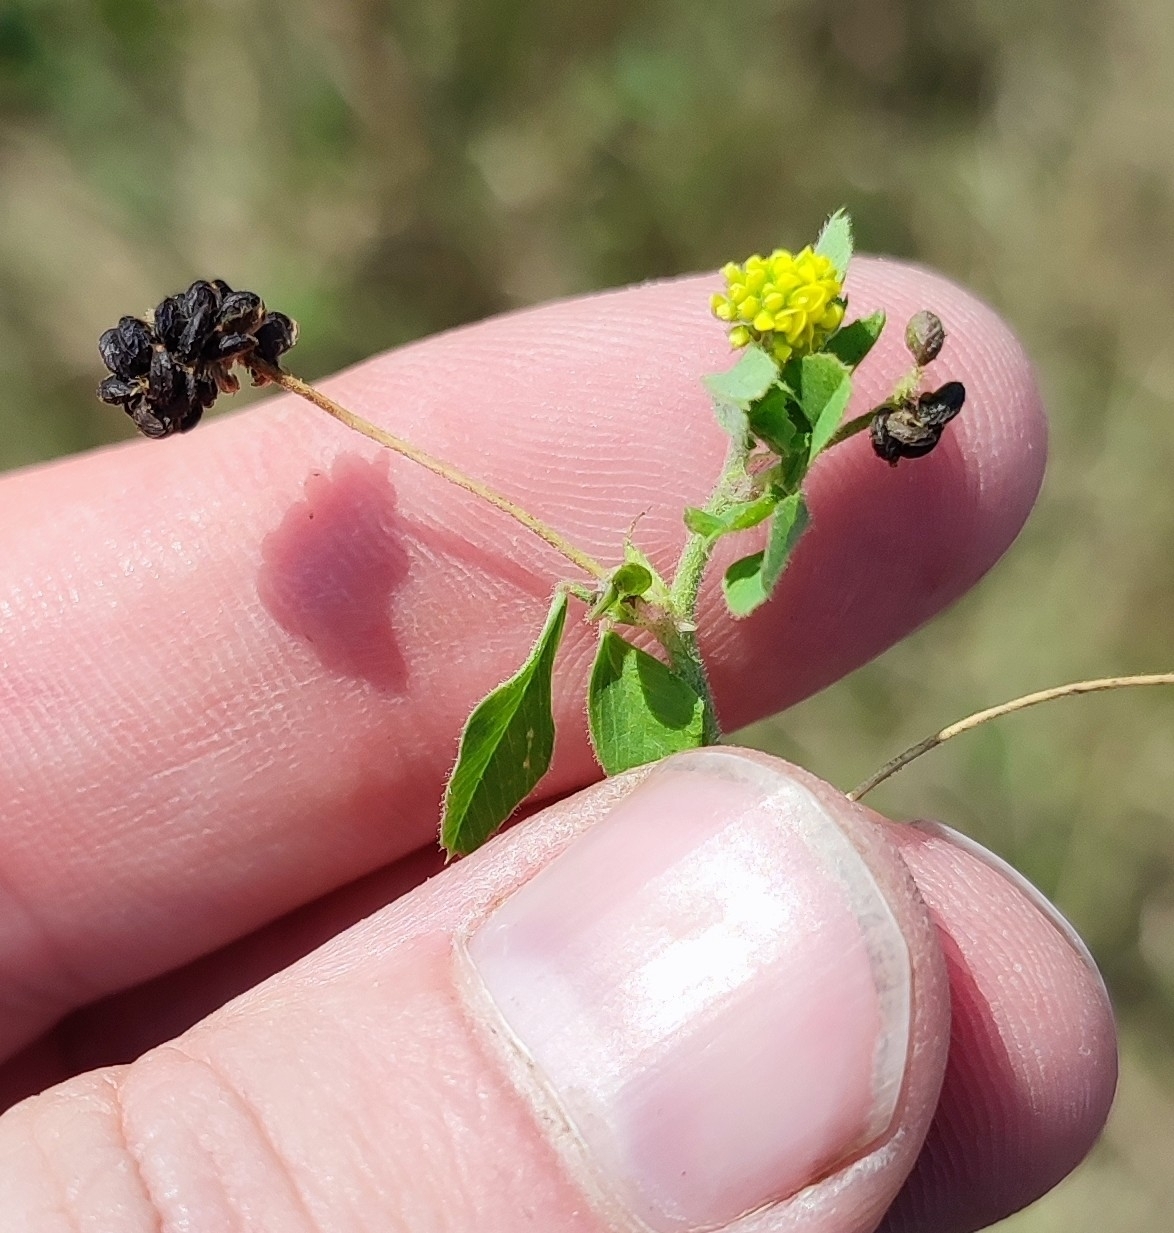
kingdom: Plantae
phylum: Tracheophyta
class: Magnoliopsida
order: Fabales
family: Fabaceae
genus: Medicago
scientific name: Medicago lupulina
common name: Black medick
